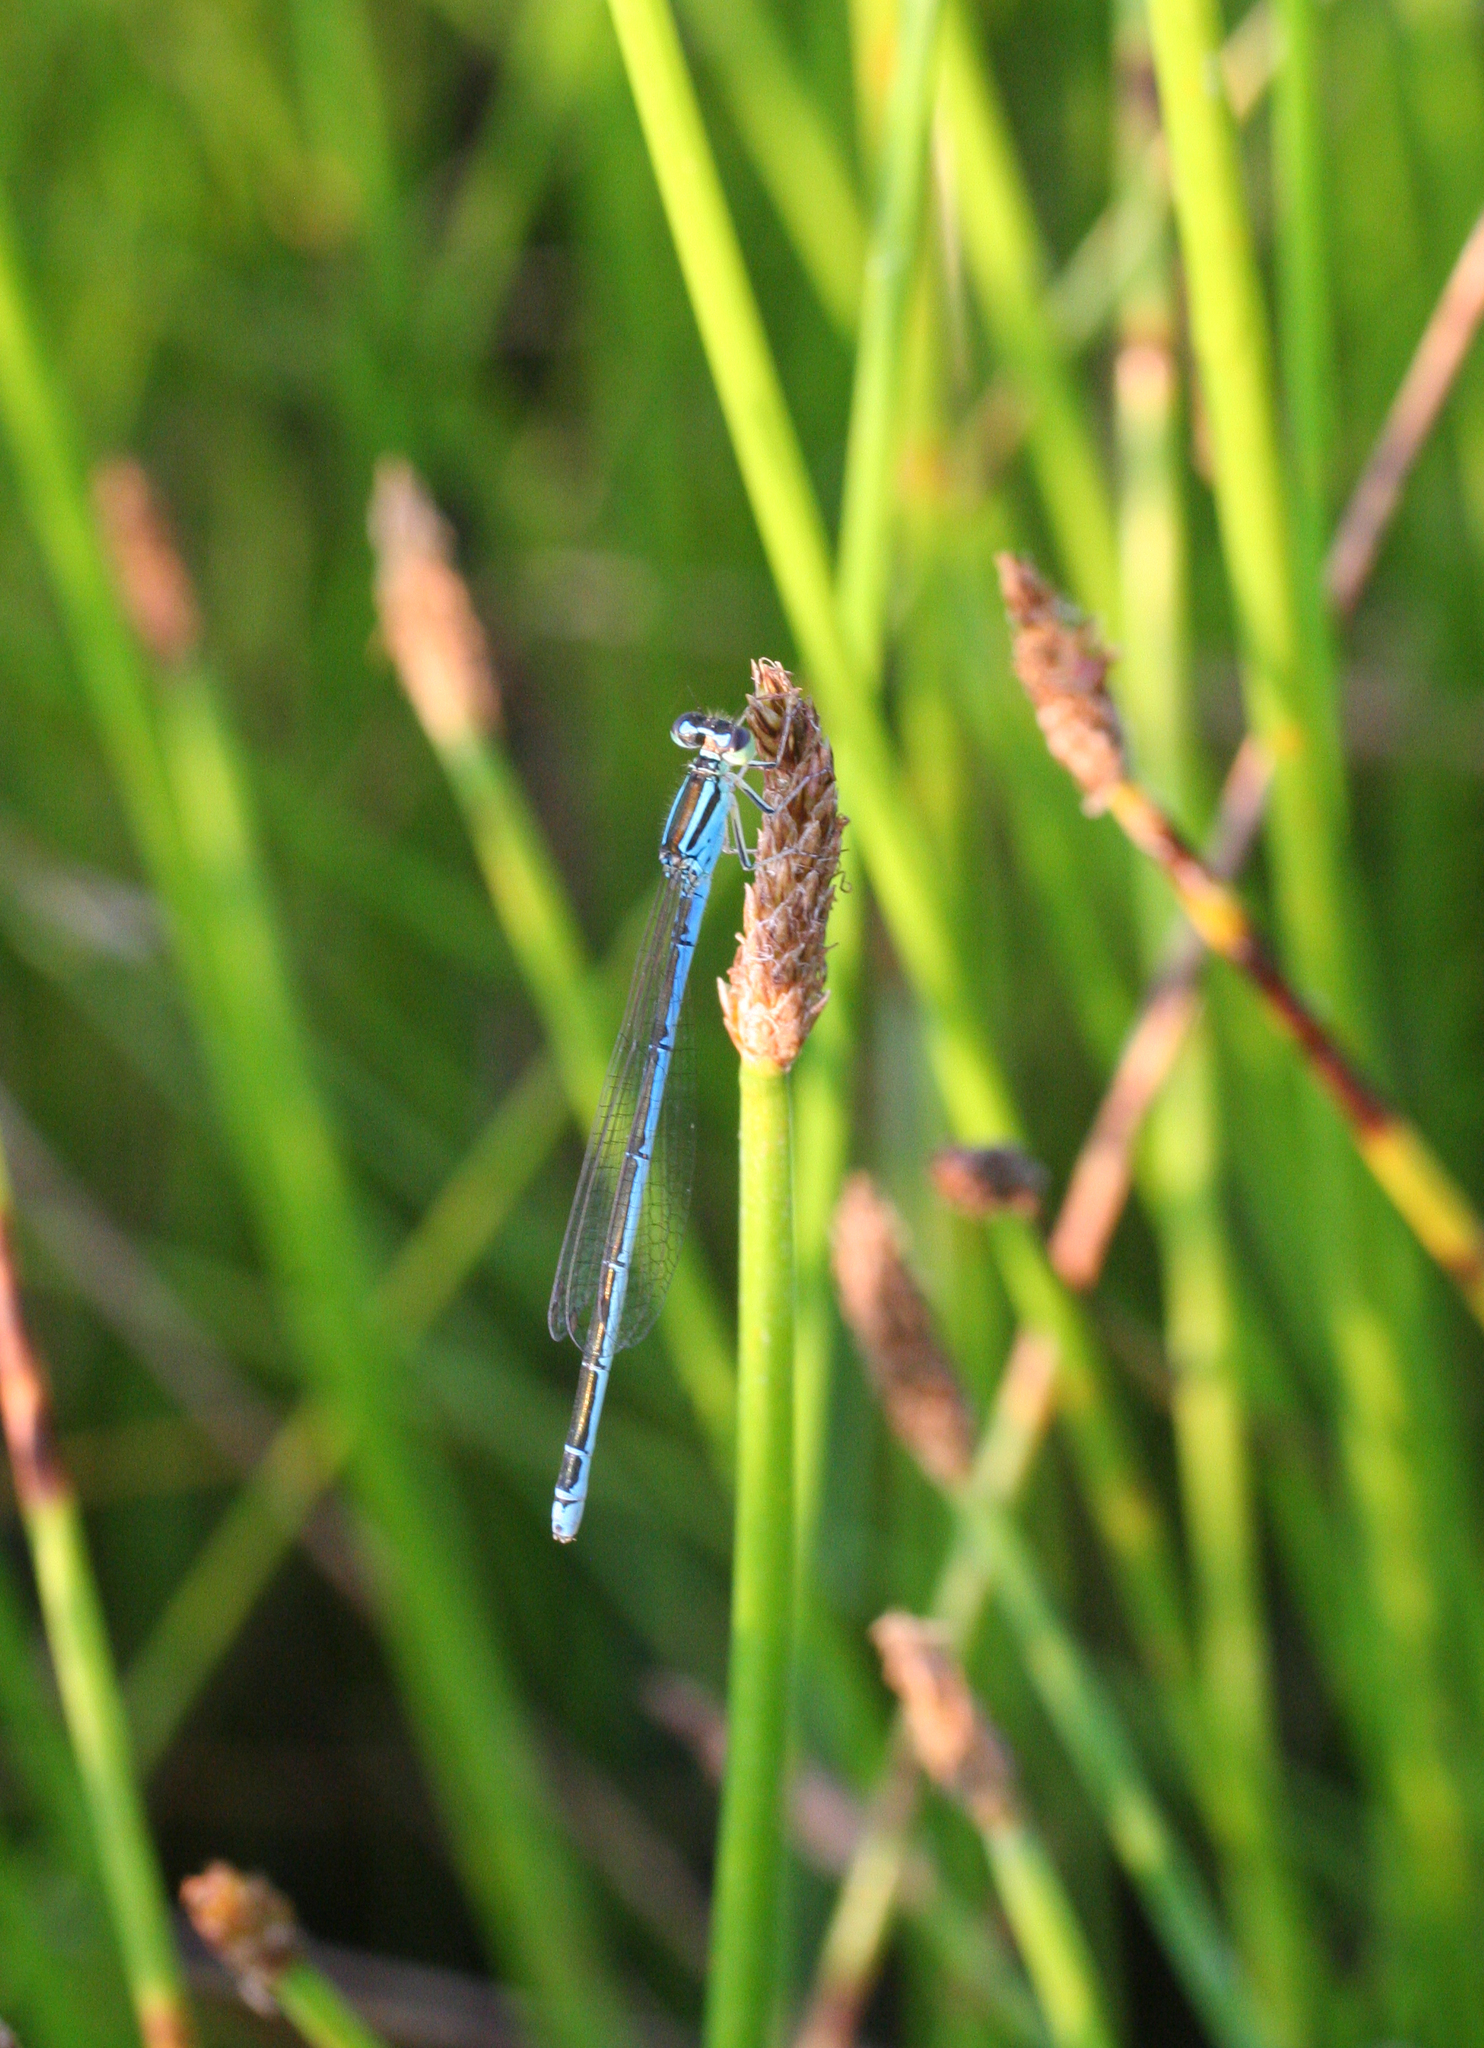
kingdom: Animalia
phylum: Arthropoda
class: Insecta
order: Odonata
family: Coenagrionidae
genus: Coenagrion
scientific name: Coenagrion ecornutum
